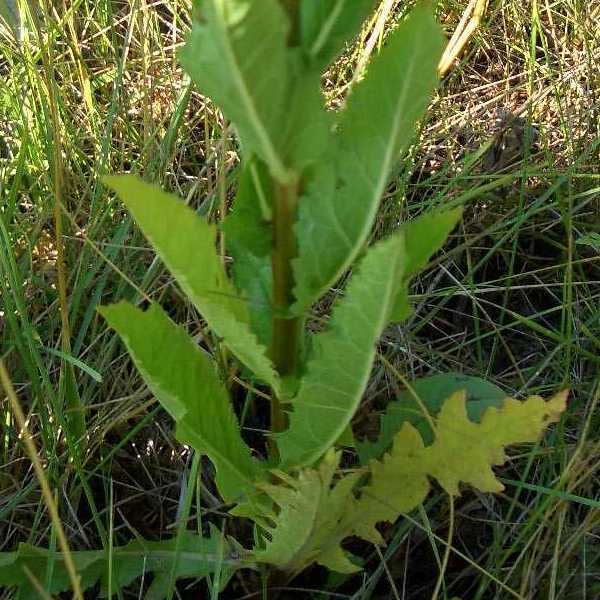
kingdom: Plantae
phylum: Tracheophyta
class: Magnoliopsida
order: Lamiales
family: Scrophulariaceae
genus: Verbascum
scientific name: Verbascum blattaria
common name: Moth mullein
